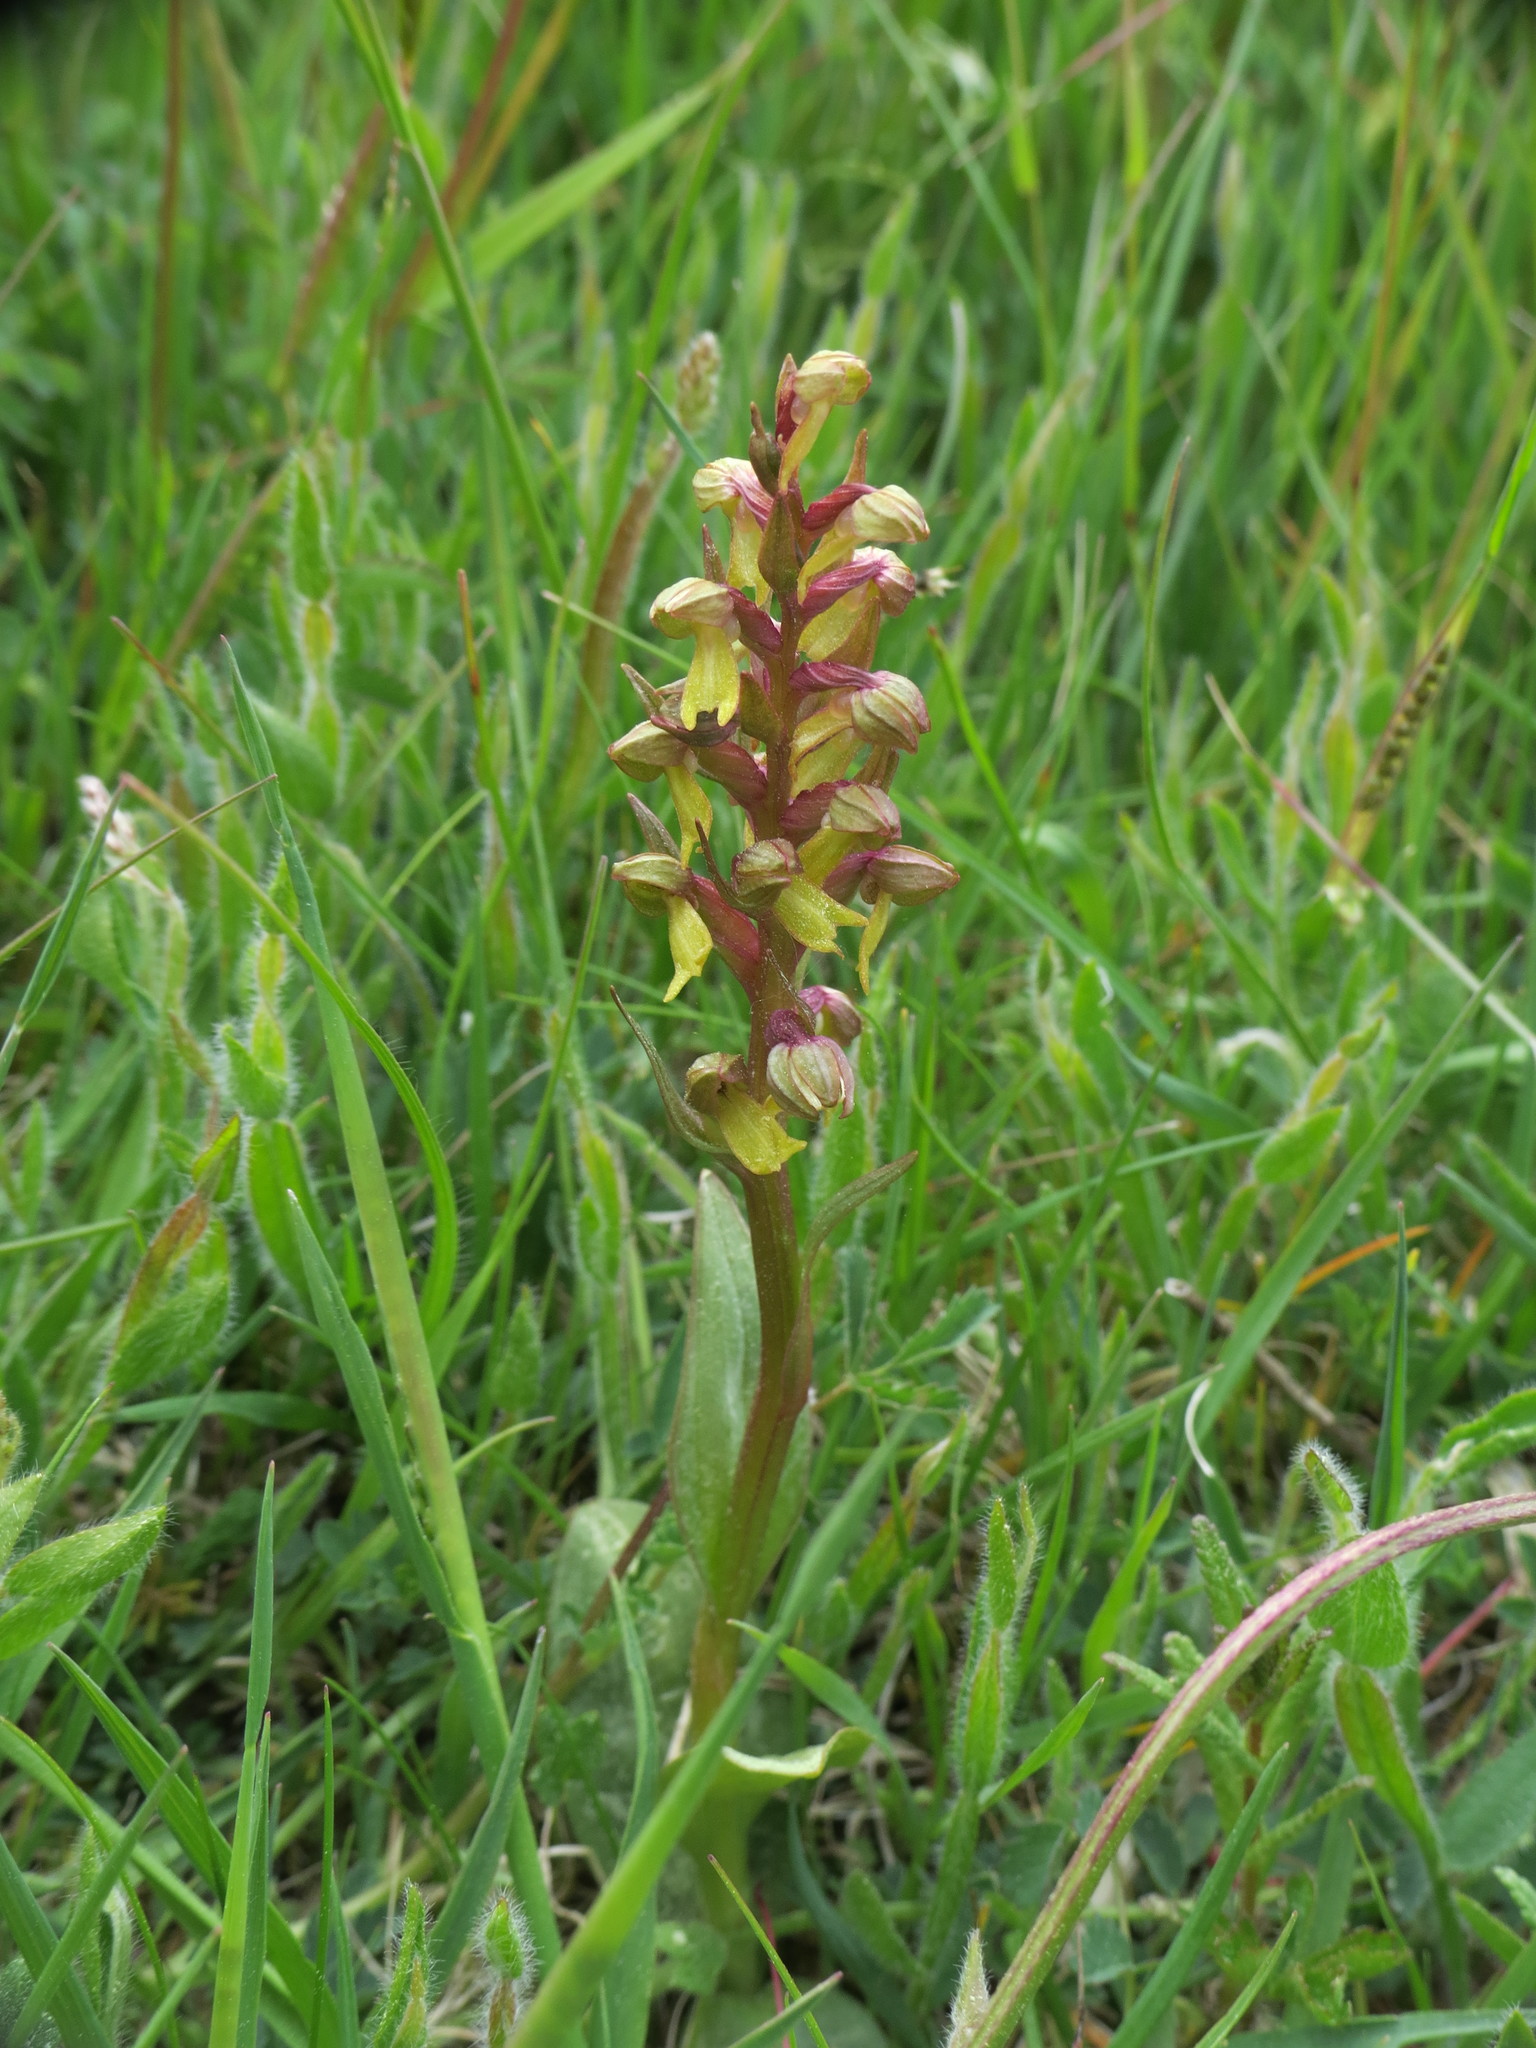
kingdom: Plantae
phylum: Tracheophyta
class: Liliopsida
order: Asparagales
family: Orchidaceae
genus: Dactylorhiza
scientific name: Dactylorhiza viridis
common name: Longbract frog orchid
